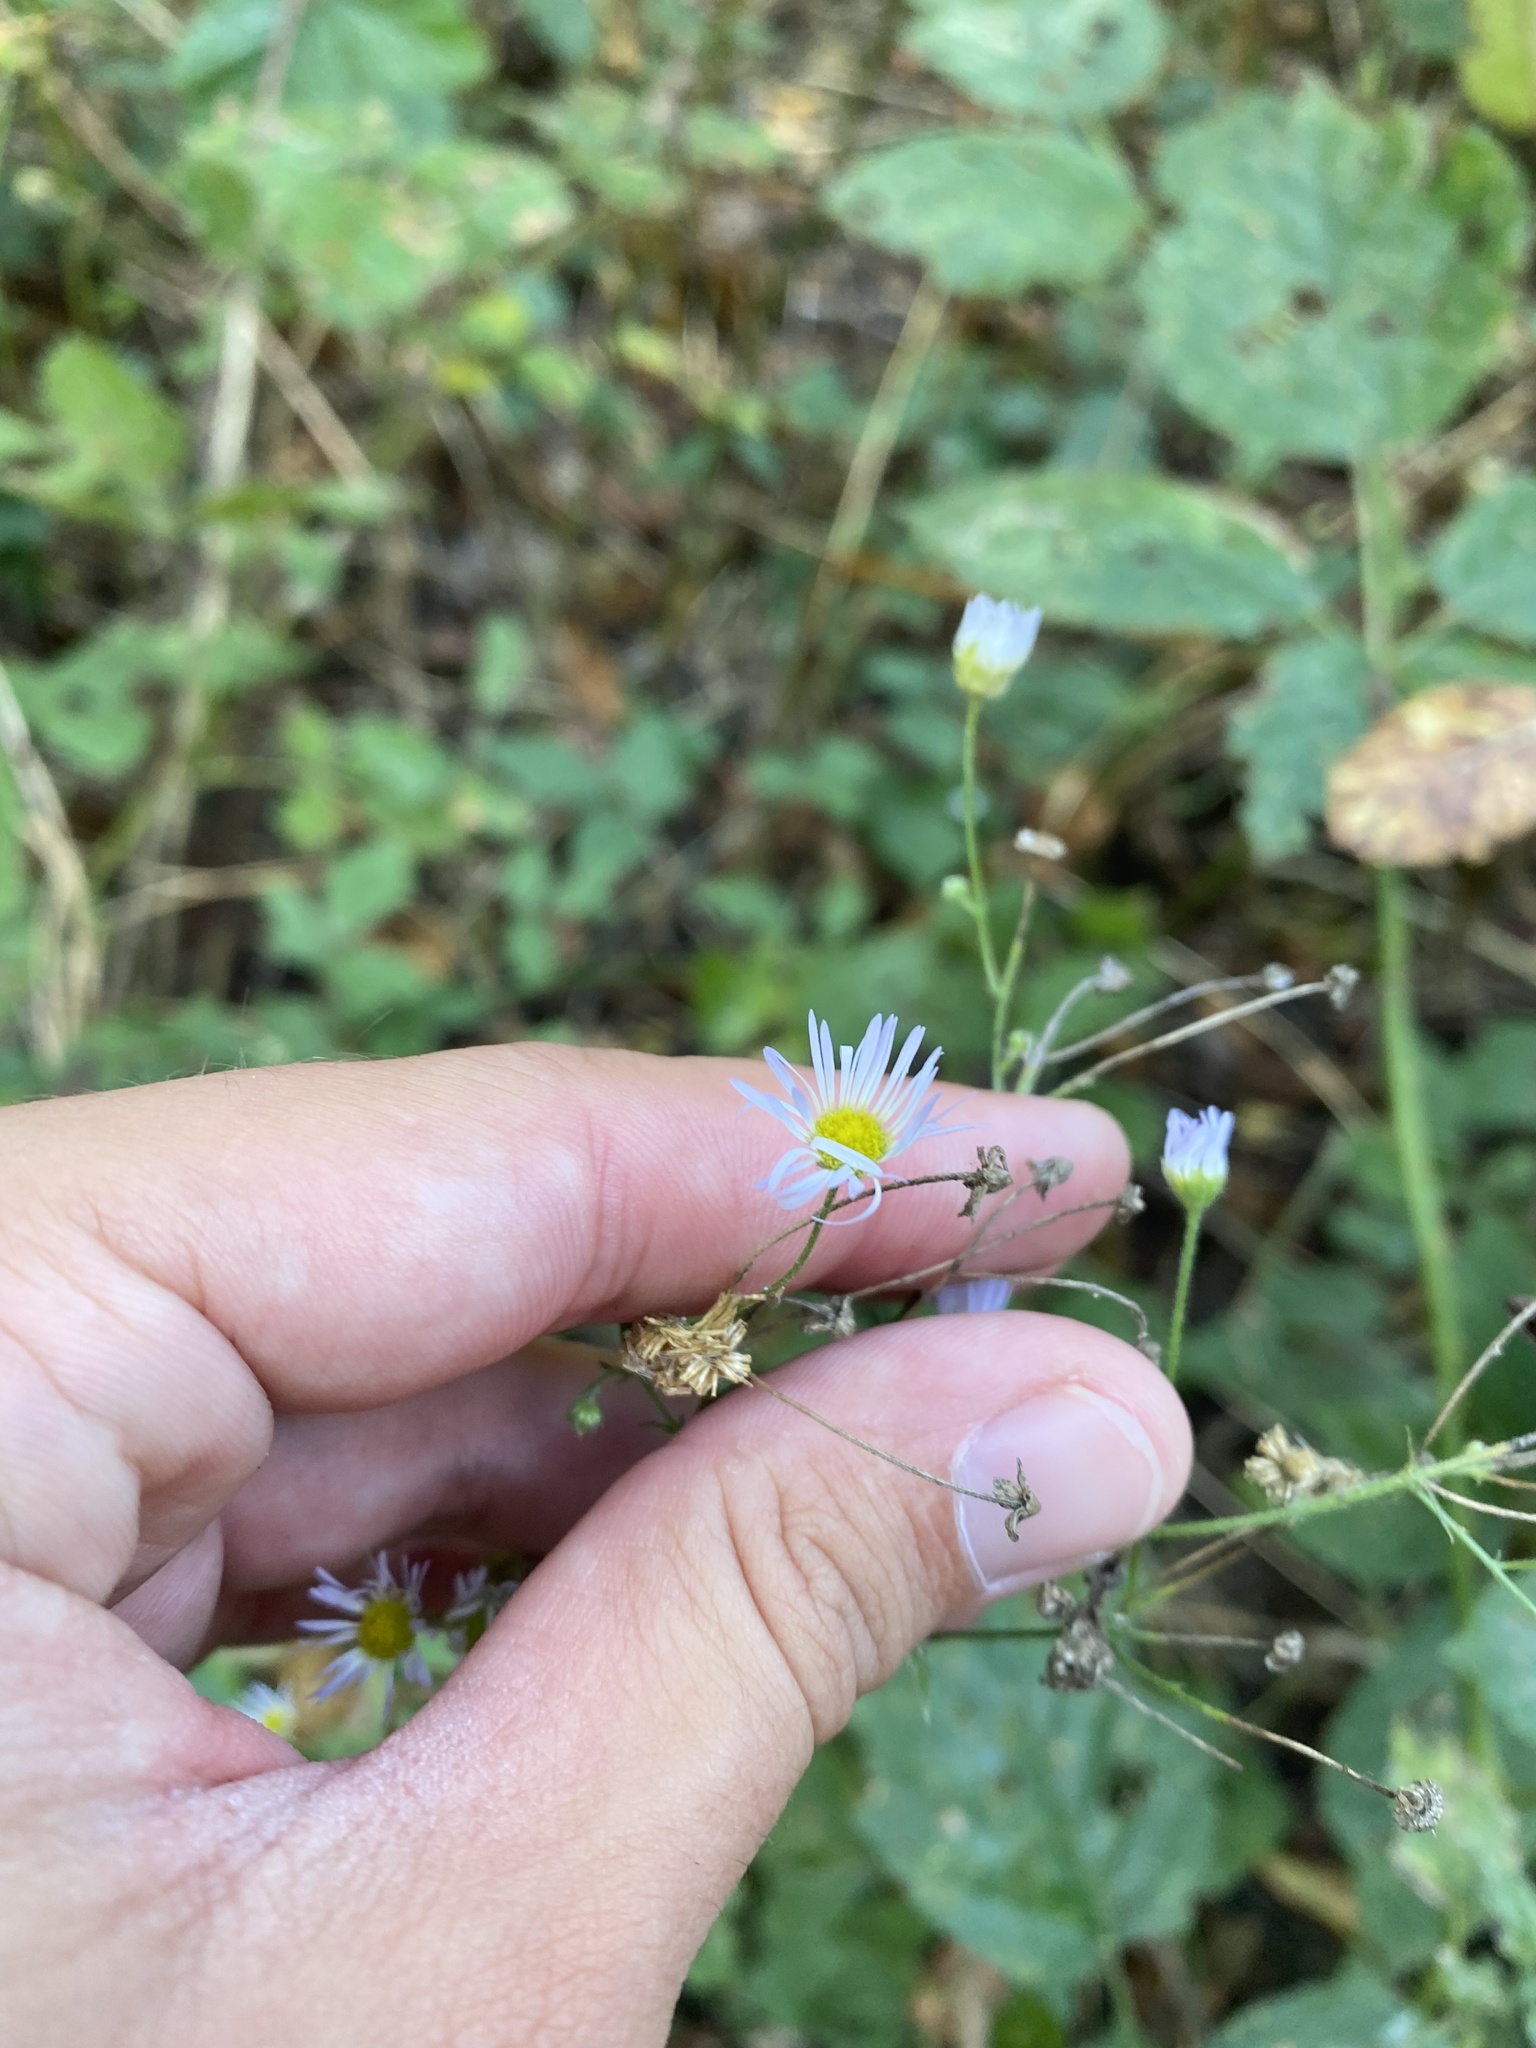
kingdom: Plantae
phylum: Tracheophyta
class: Magnoliopsida
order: Asterales
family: Asteraceae
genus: Erigeron
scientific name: Erigeron annuus
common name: Tall fleabane
